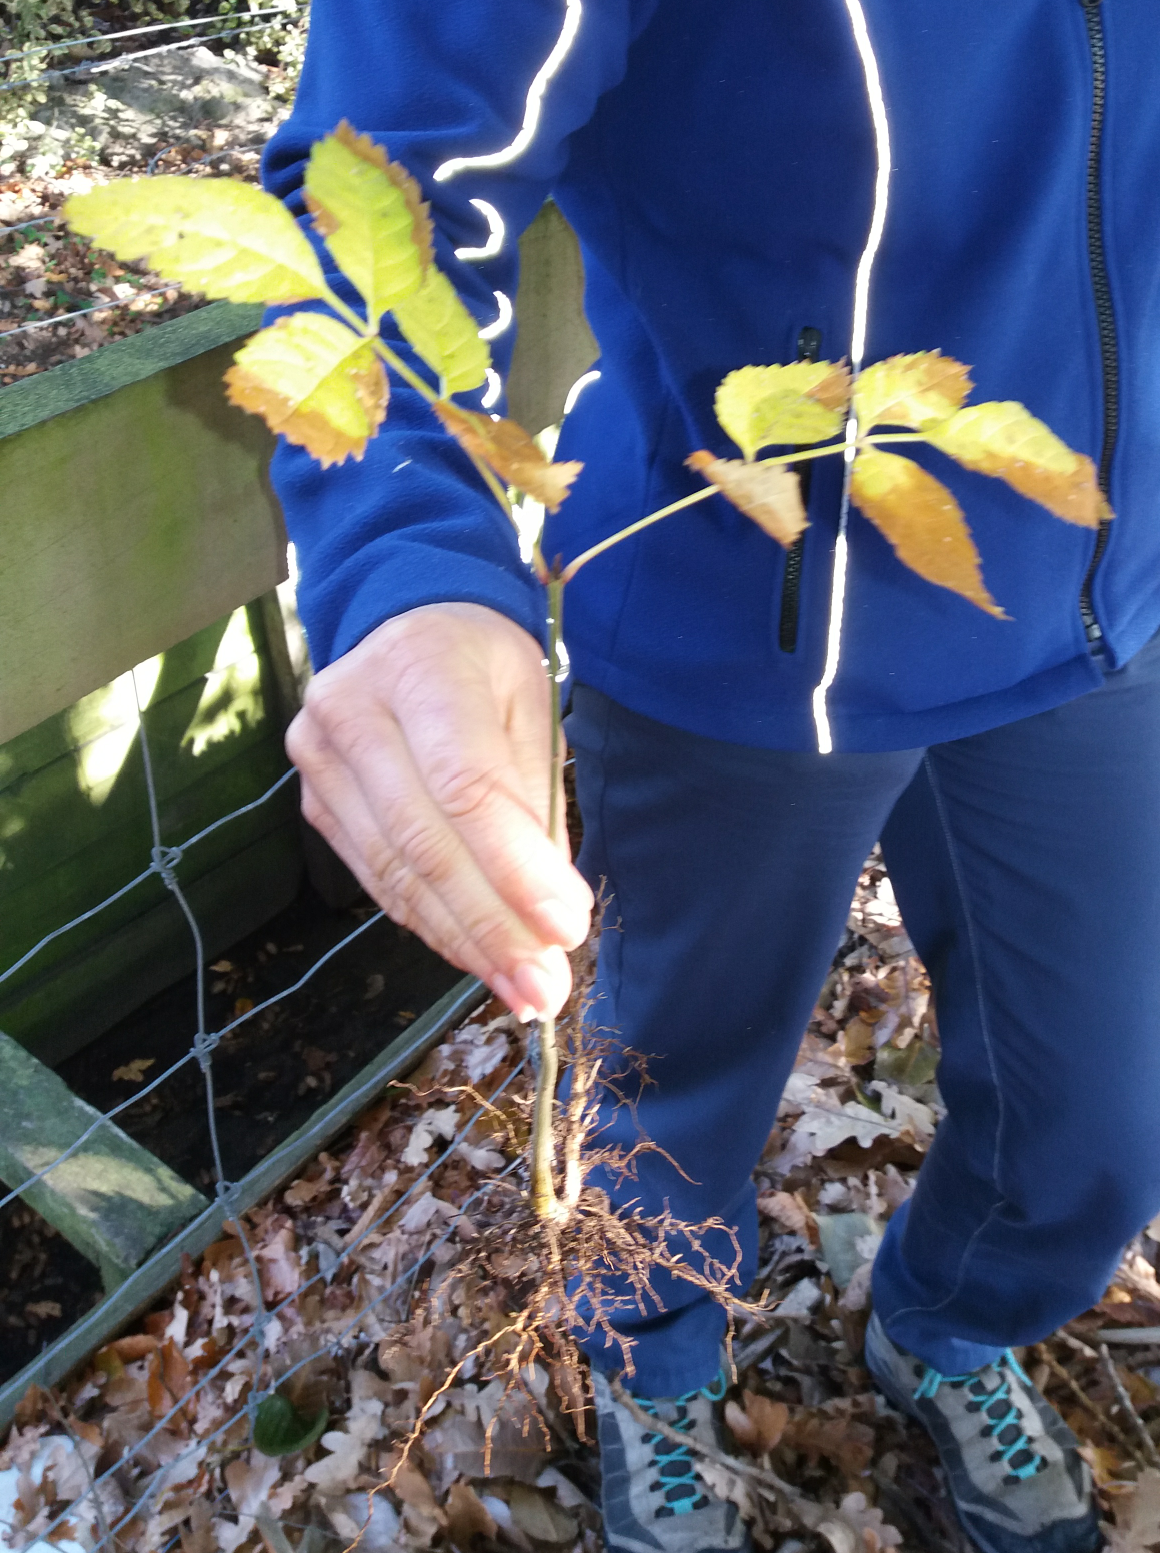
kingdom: Plantae
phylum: Tracheophyta
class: Magnoliopsida
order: Lamiales
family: Oleaceae
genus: Fraxinus
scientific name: Fraxinus excelsior
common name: European ash
